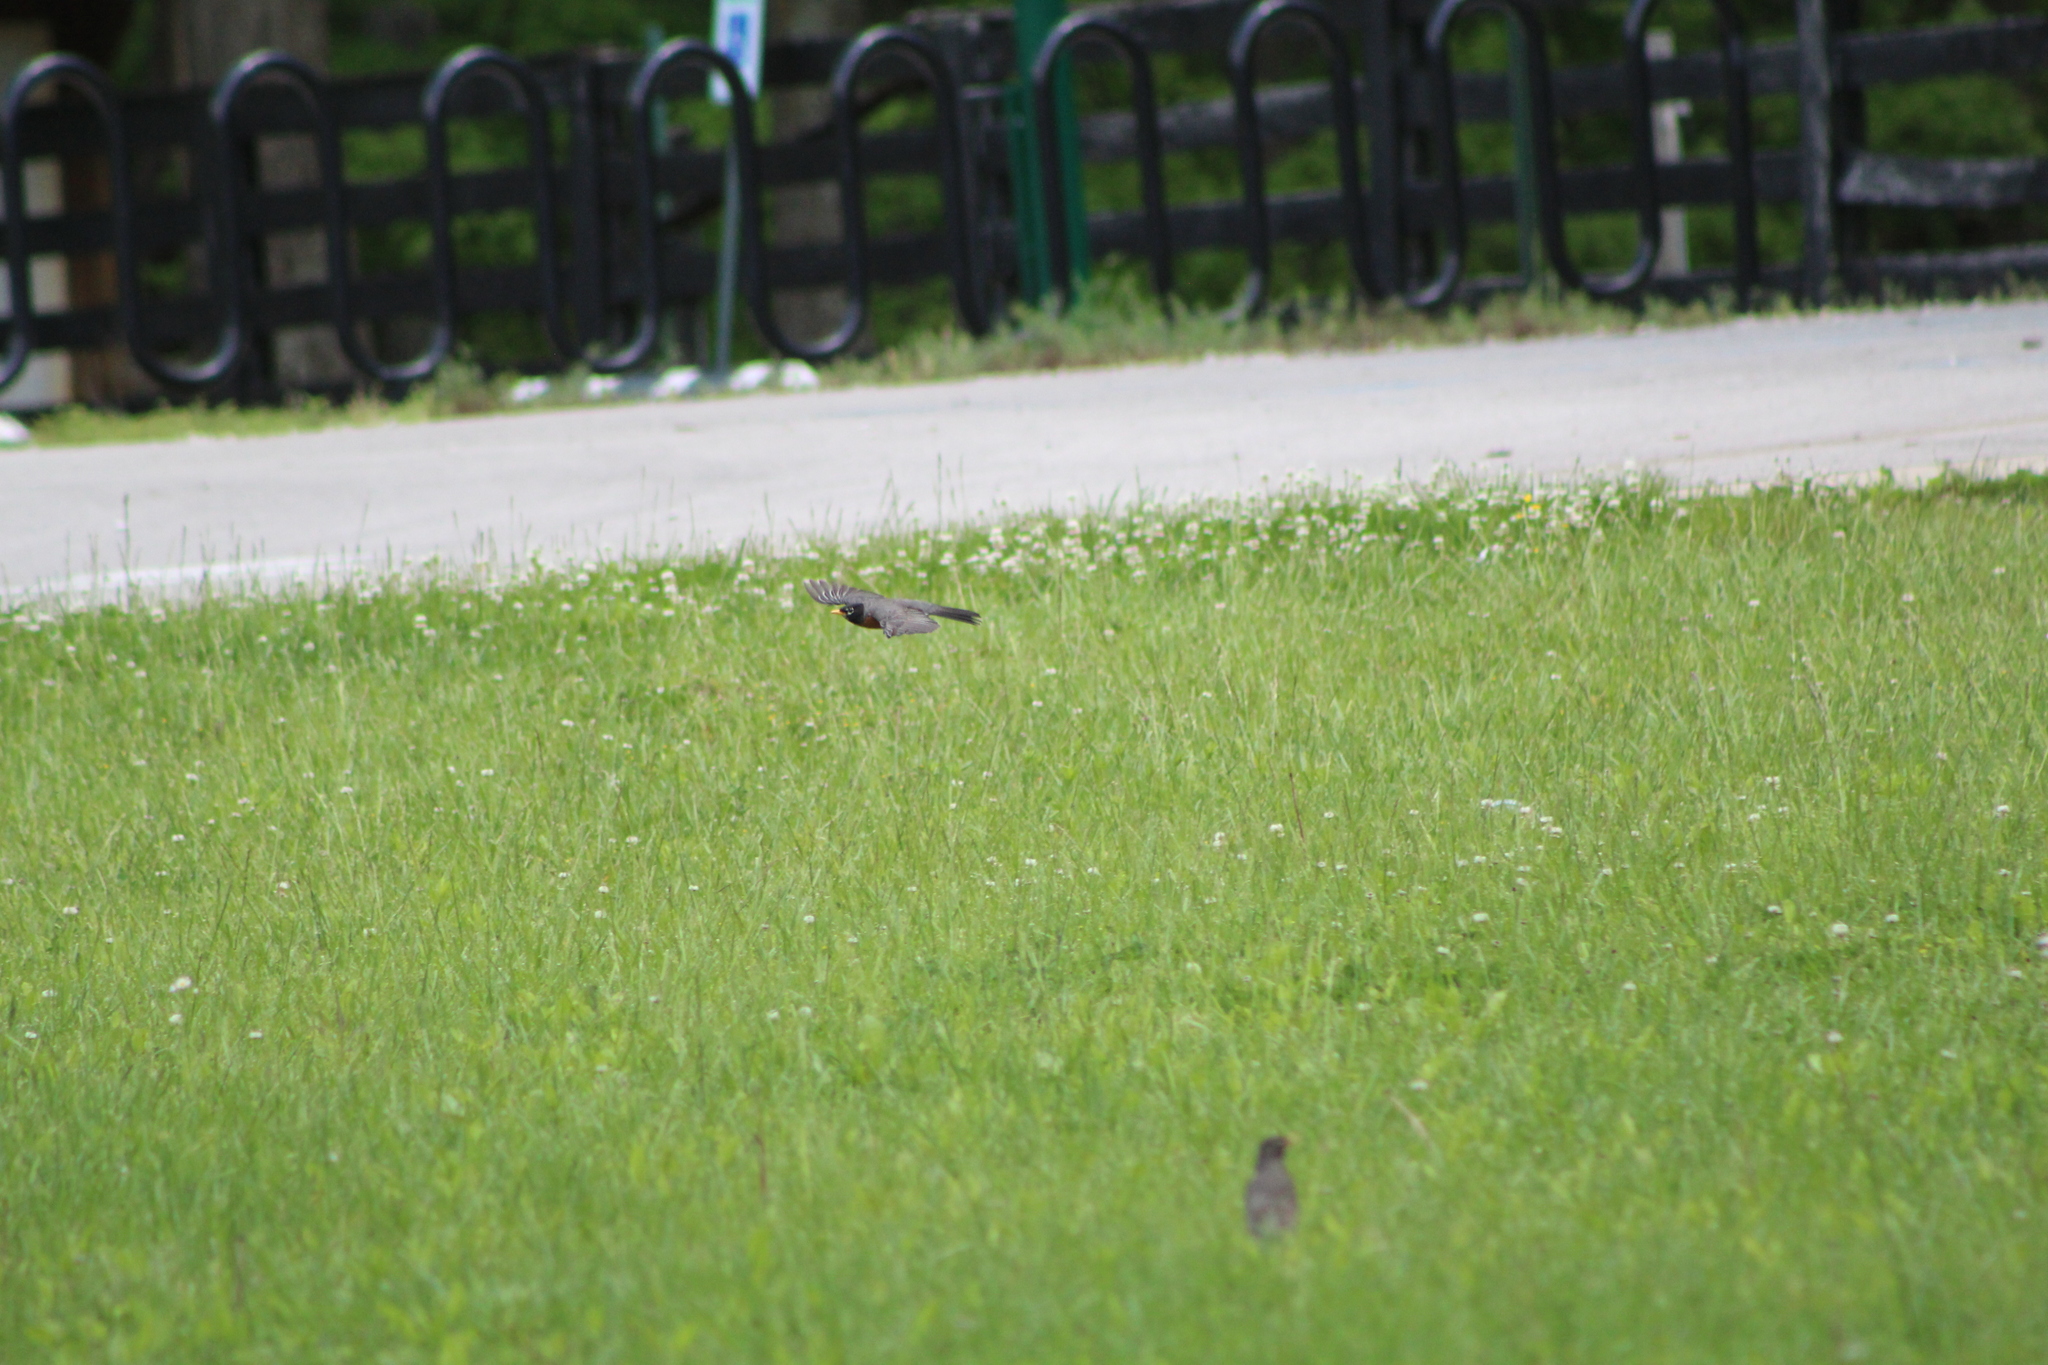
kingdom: Animalia
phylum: Chordata
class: Aves
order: Passeriformes
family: Turdidae
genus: Turdus
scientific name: Turdus migratorius
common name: American robin
